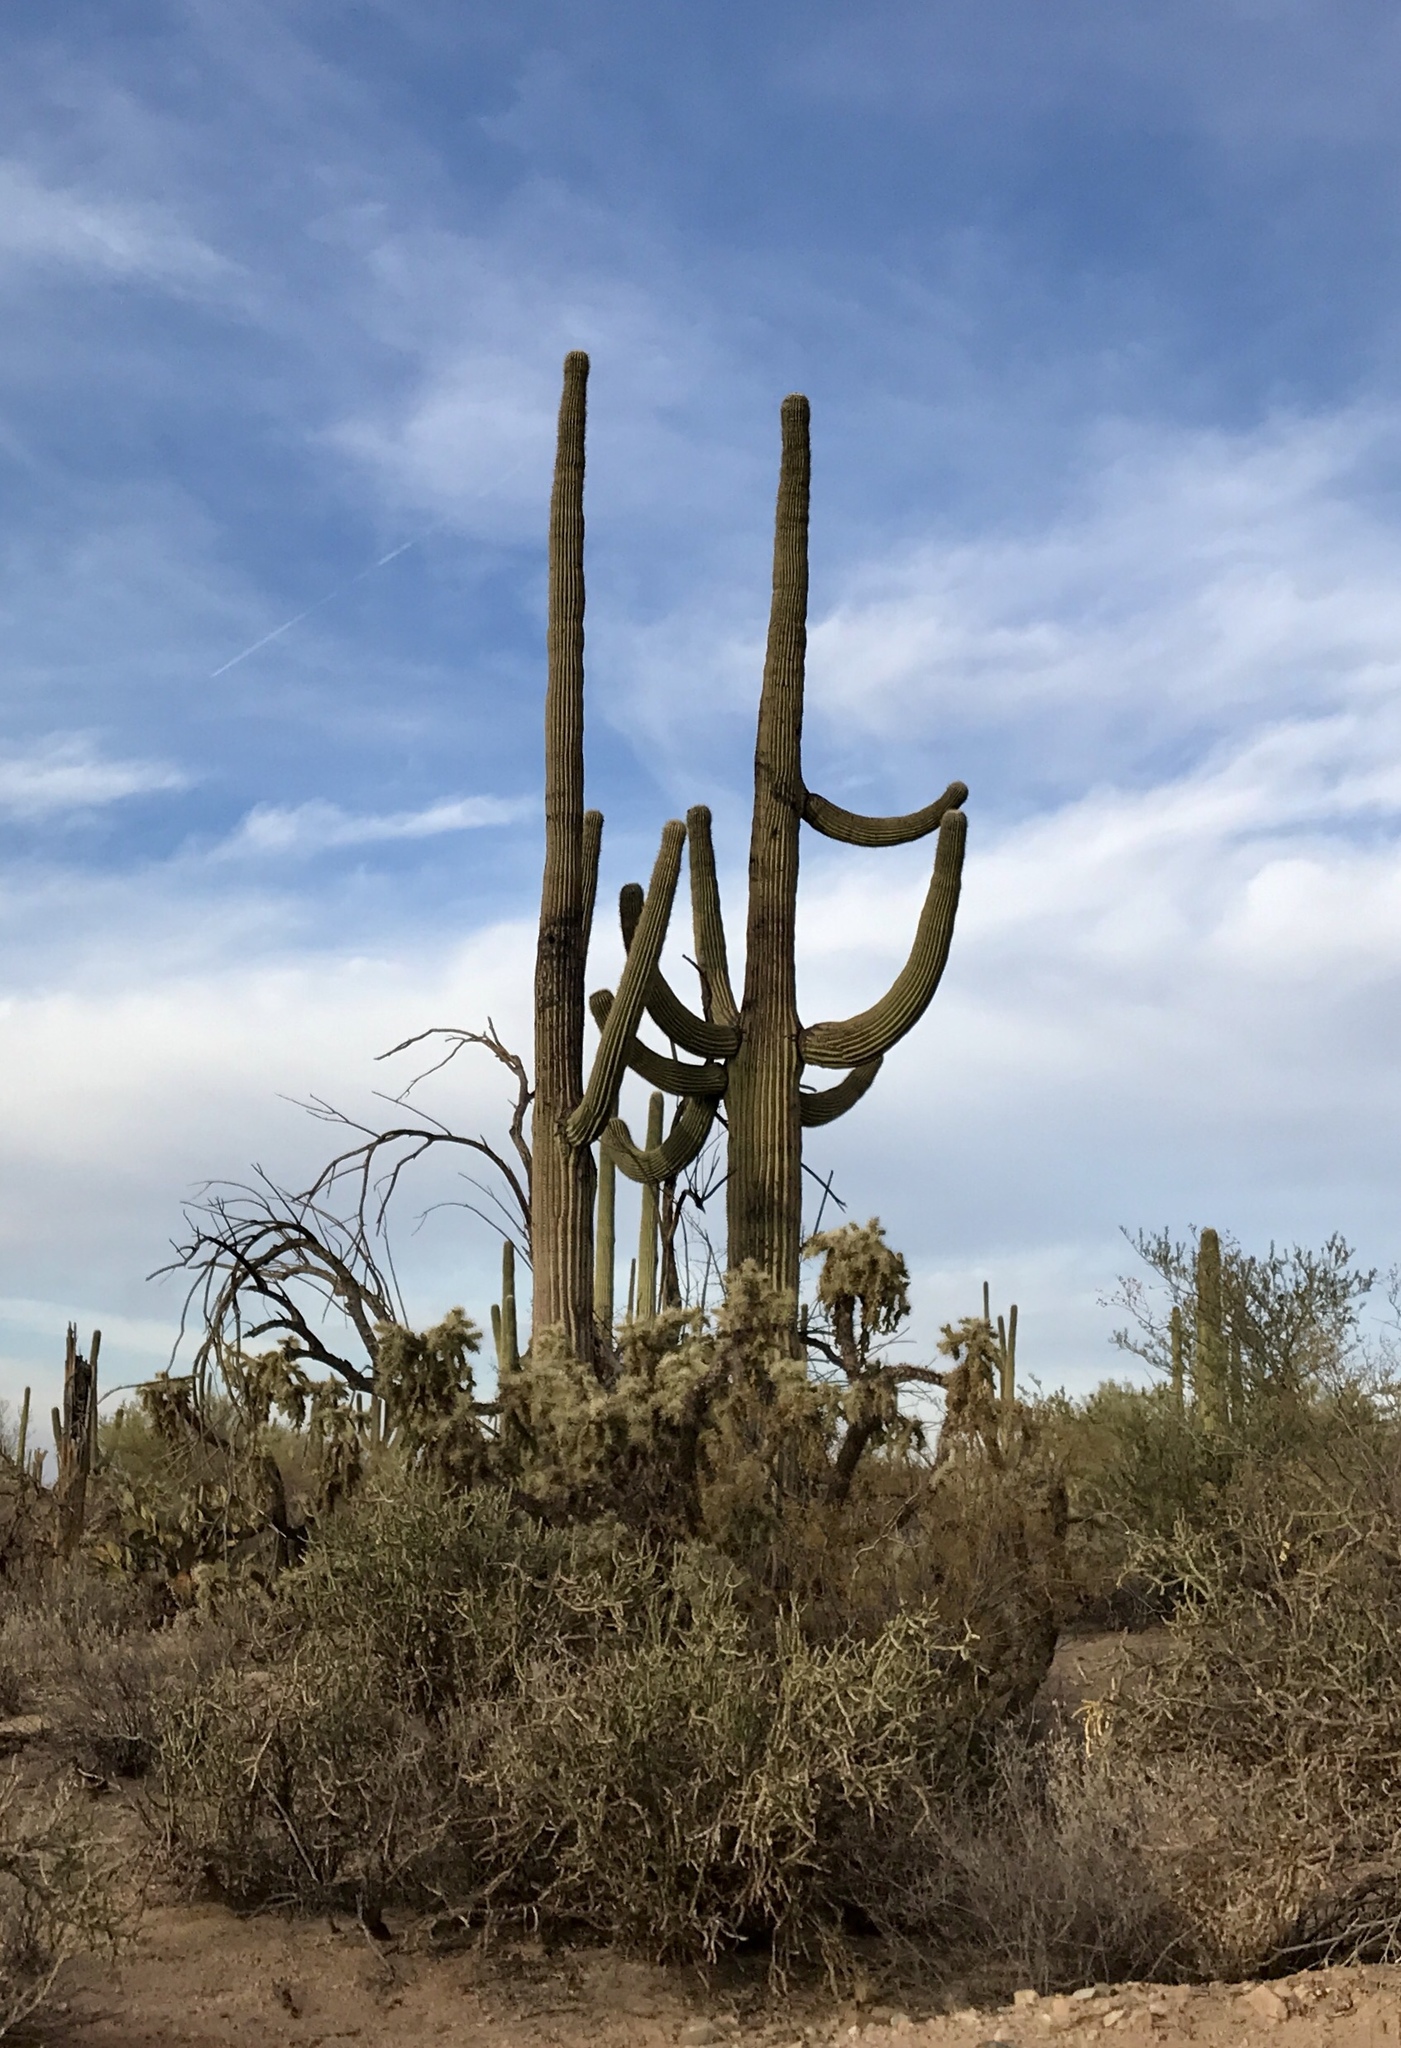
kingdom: Plantae
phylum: Tracheophyta
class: Magnoliopsida
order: Caryophyllales
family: Cactaceae
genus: Carnegiea
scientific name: Carnegiea gigantea
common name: Saguaro
